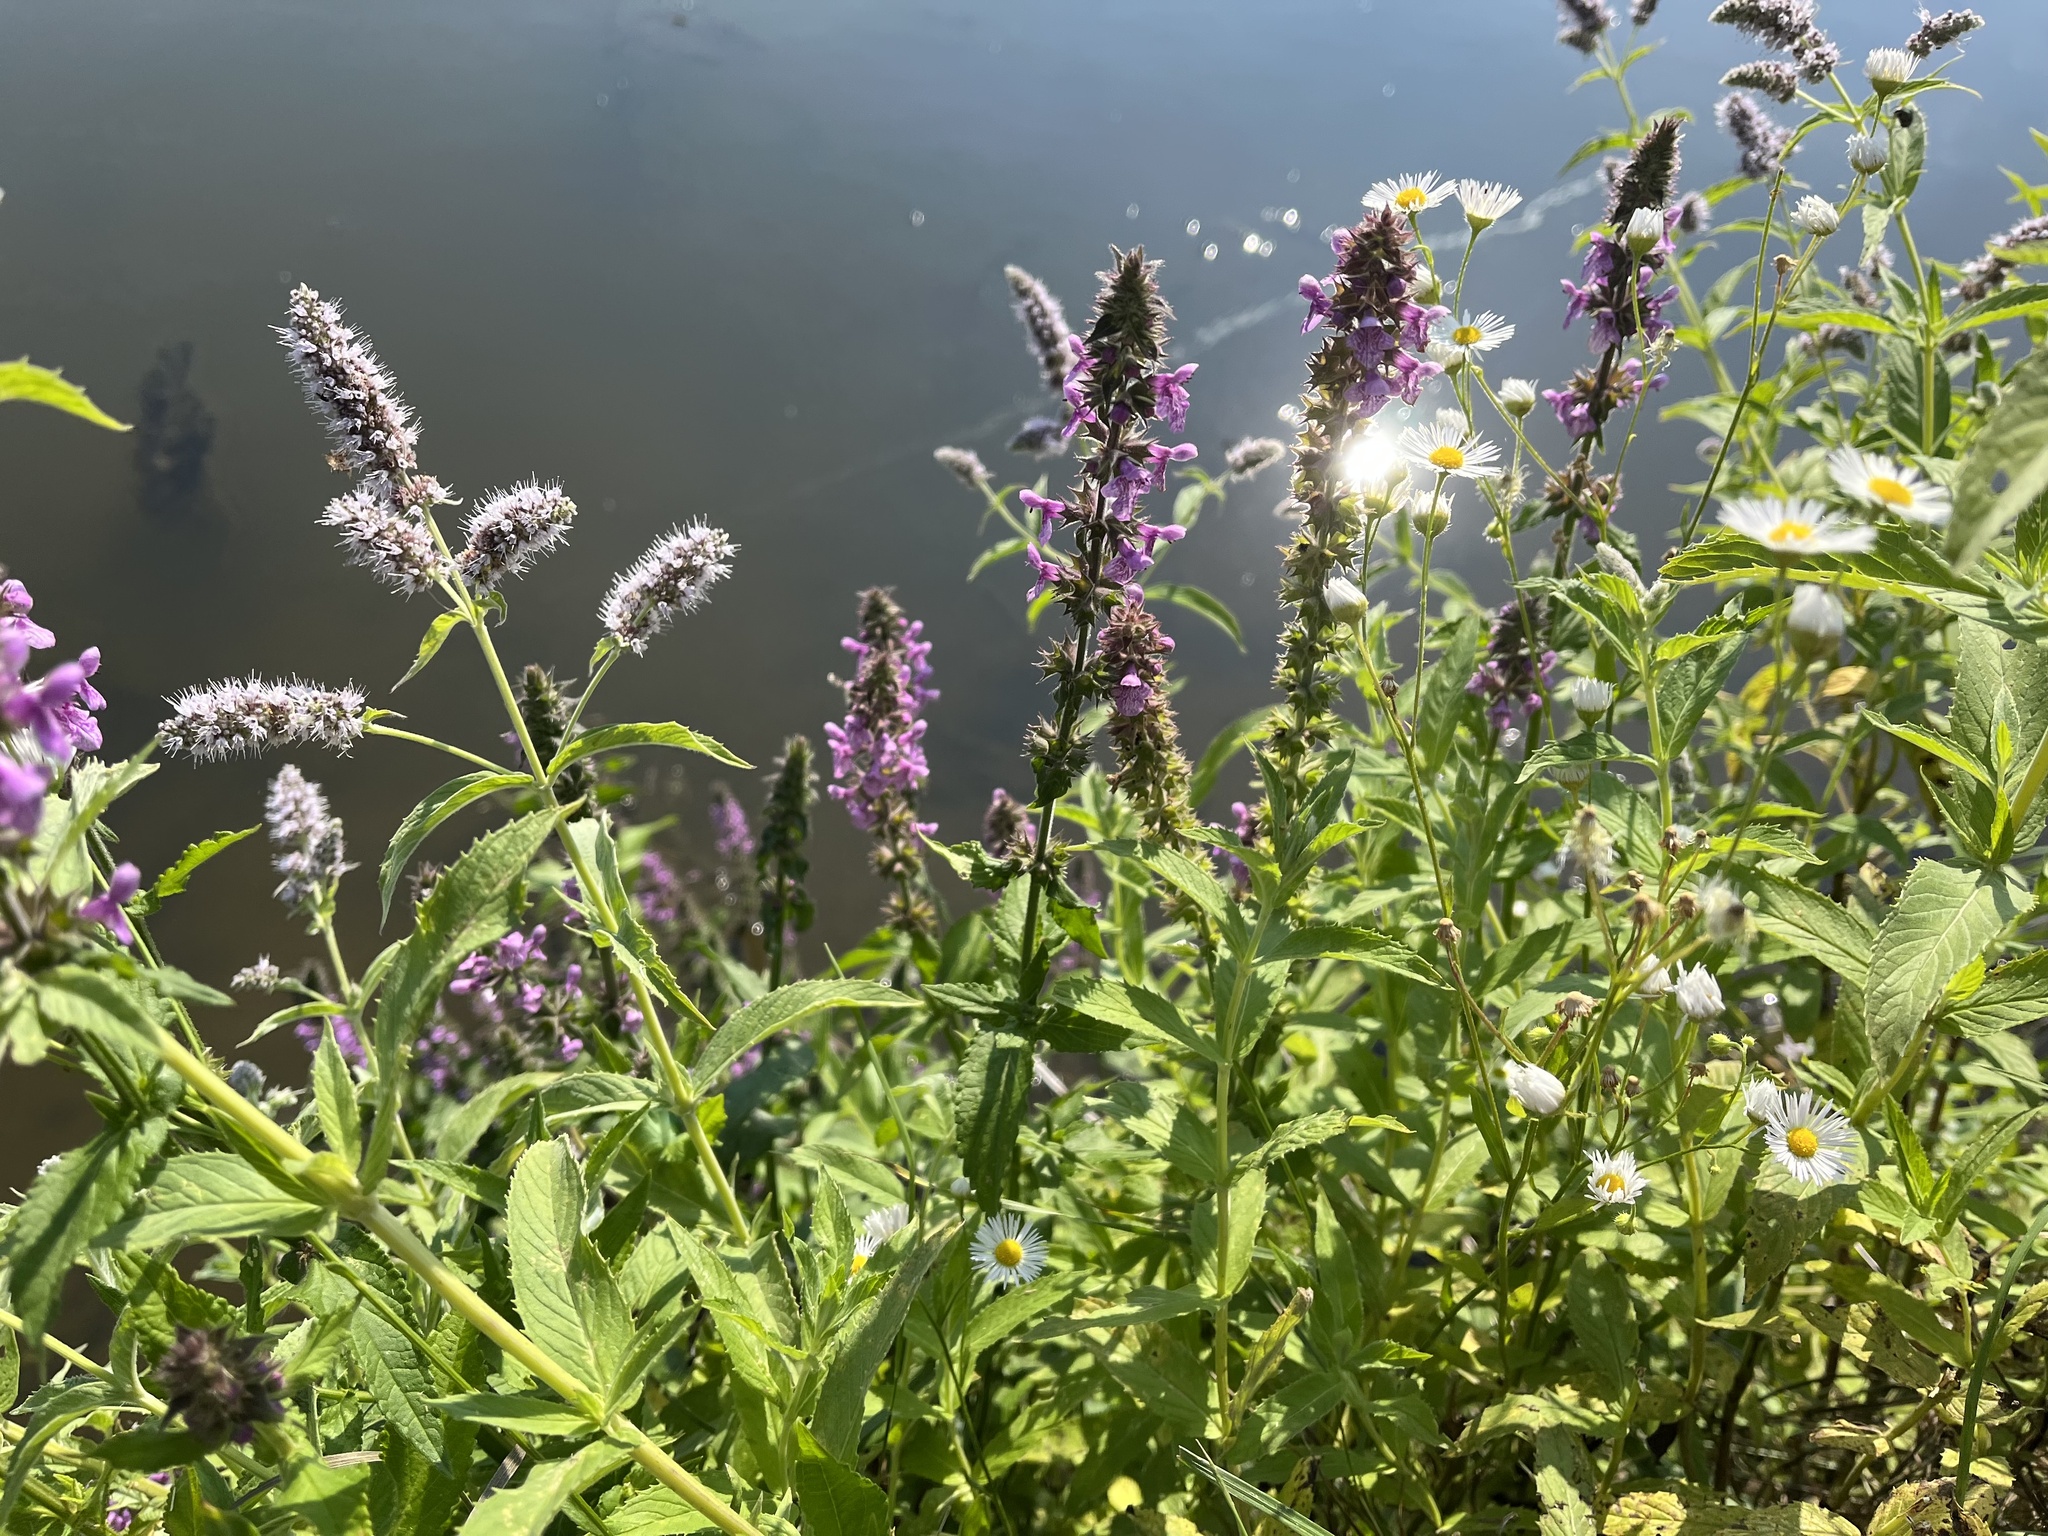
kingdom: Plantae
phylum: Tracheophyta
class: Magnoliopsida
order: Lamiales
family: Lamiaceae
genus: Stachys
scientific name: Stachys palustris
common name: Marsh woundwort
